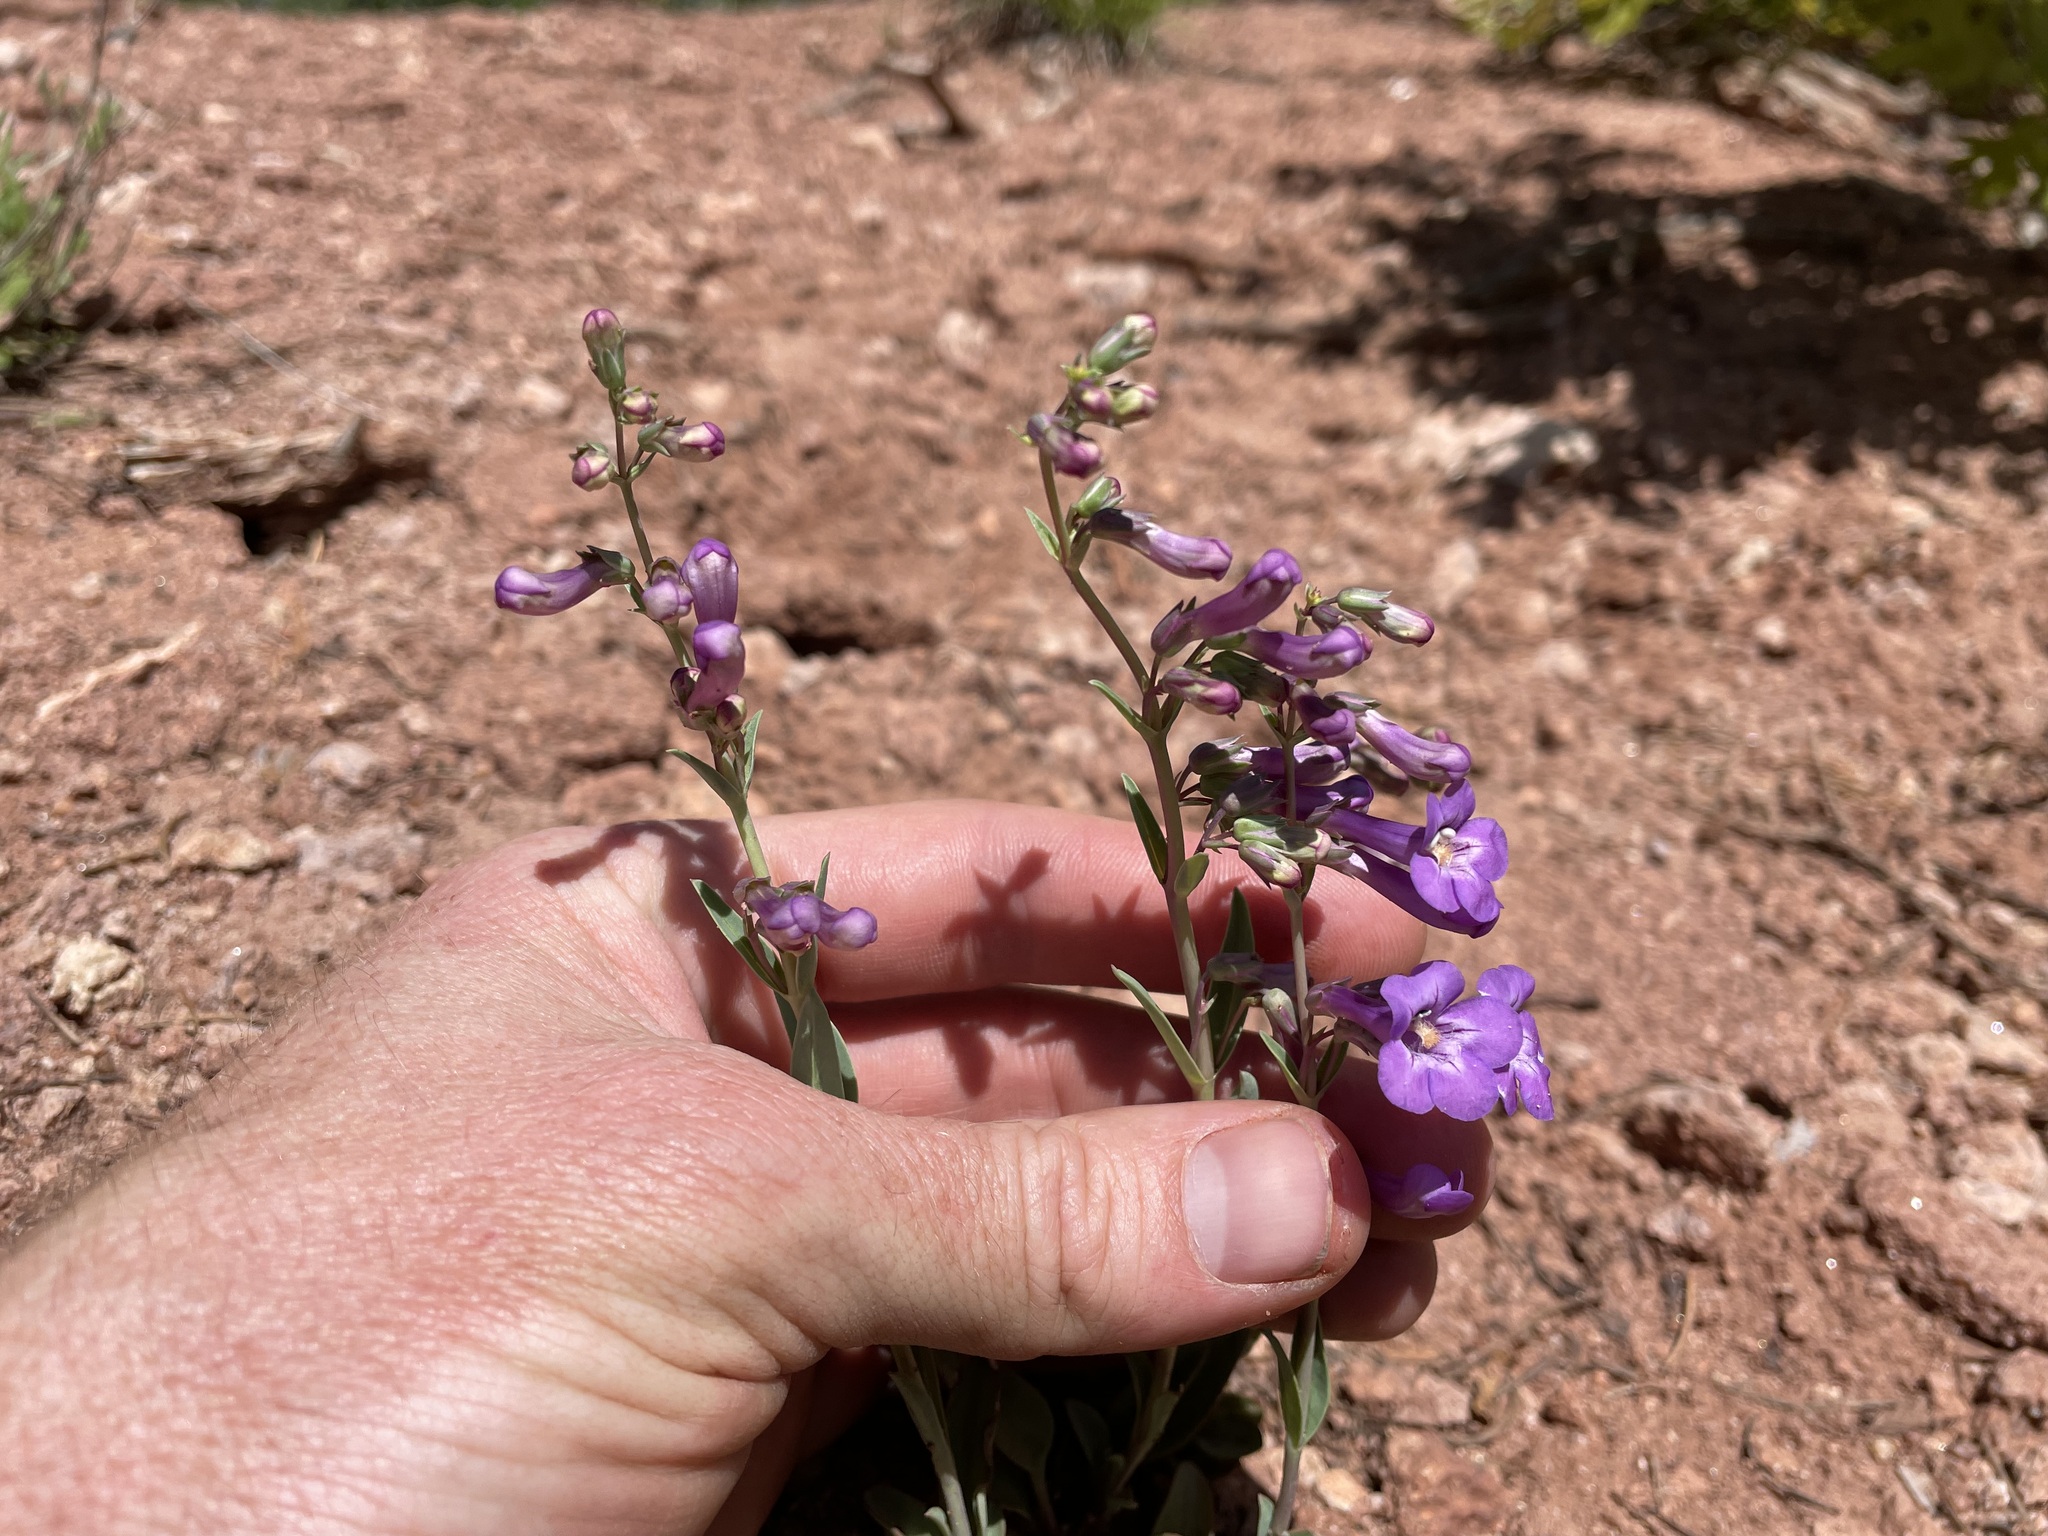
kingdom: Plantae
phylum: Tracheophyta
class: Magnoliopsida
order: Lamiales
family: Plantaginaceae
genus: Penstemon
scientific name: Penstemon secundiflorus
